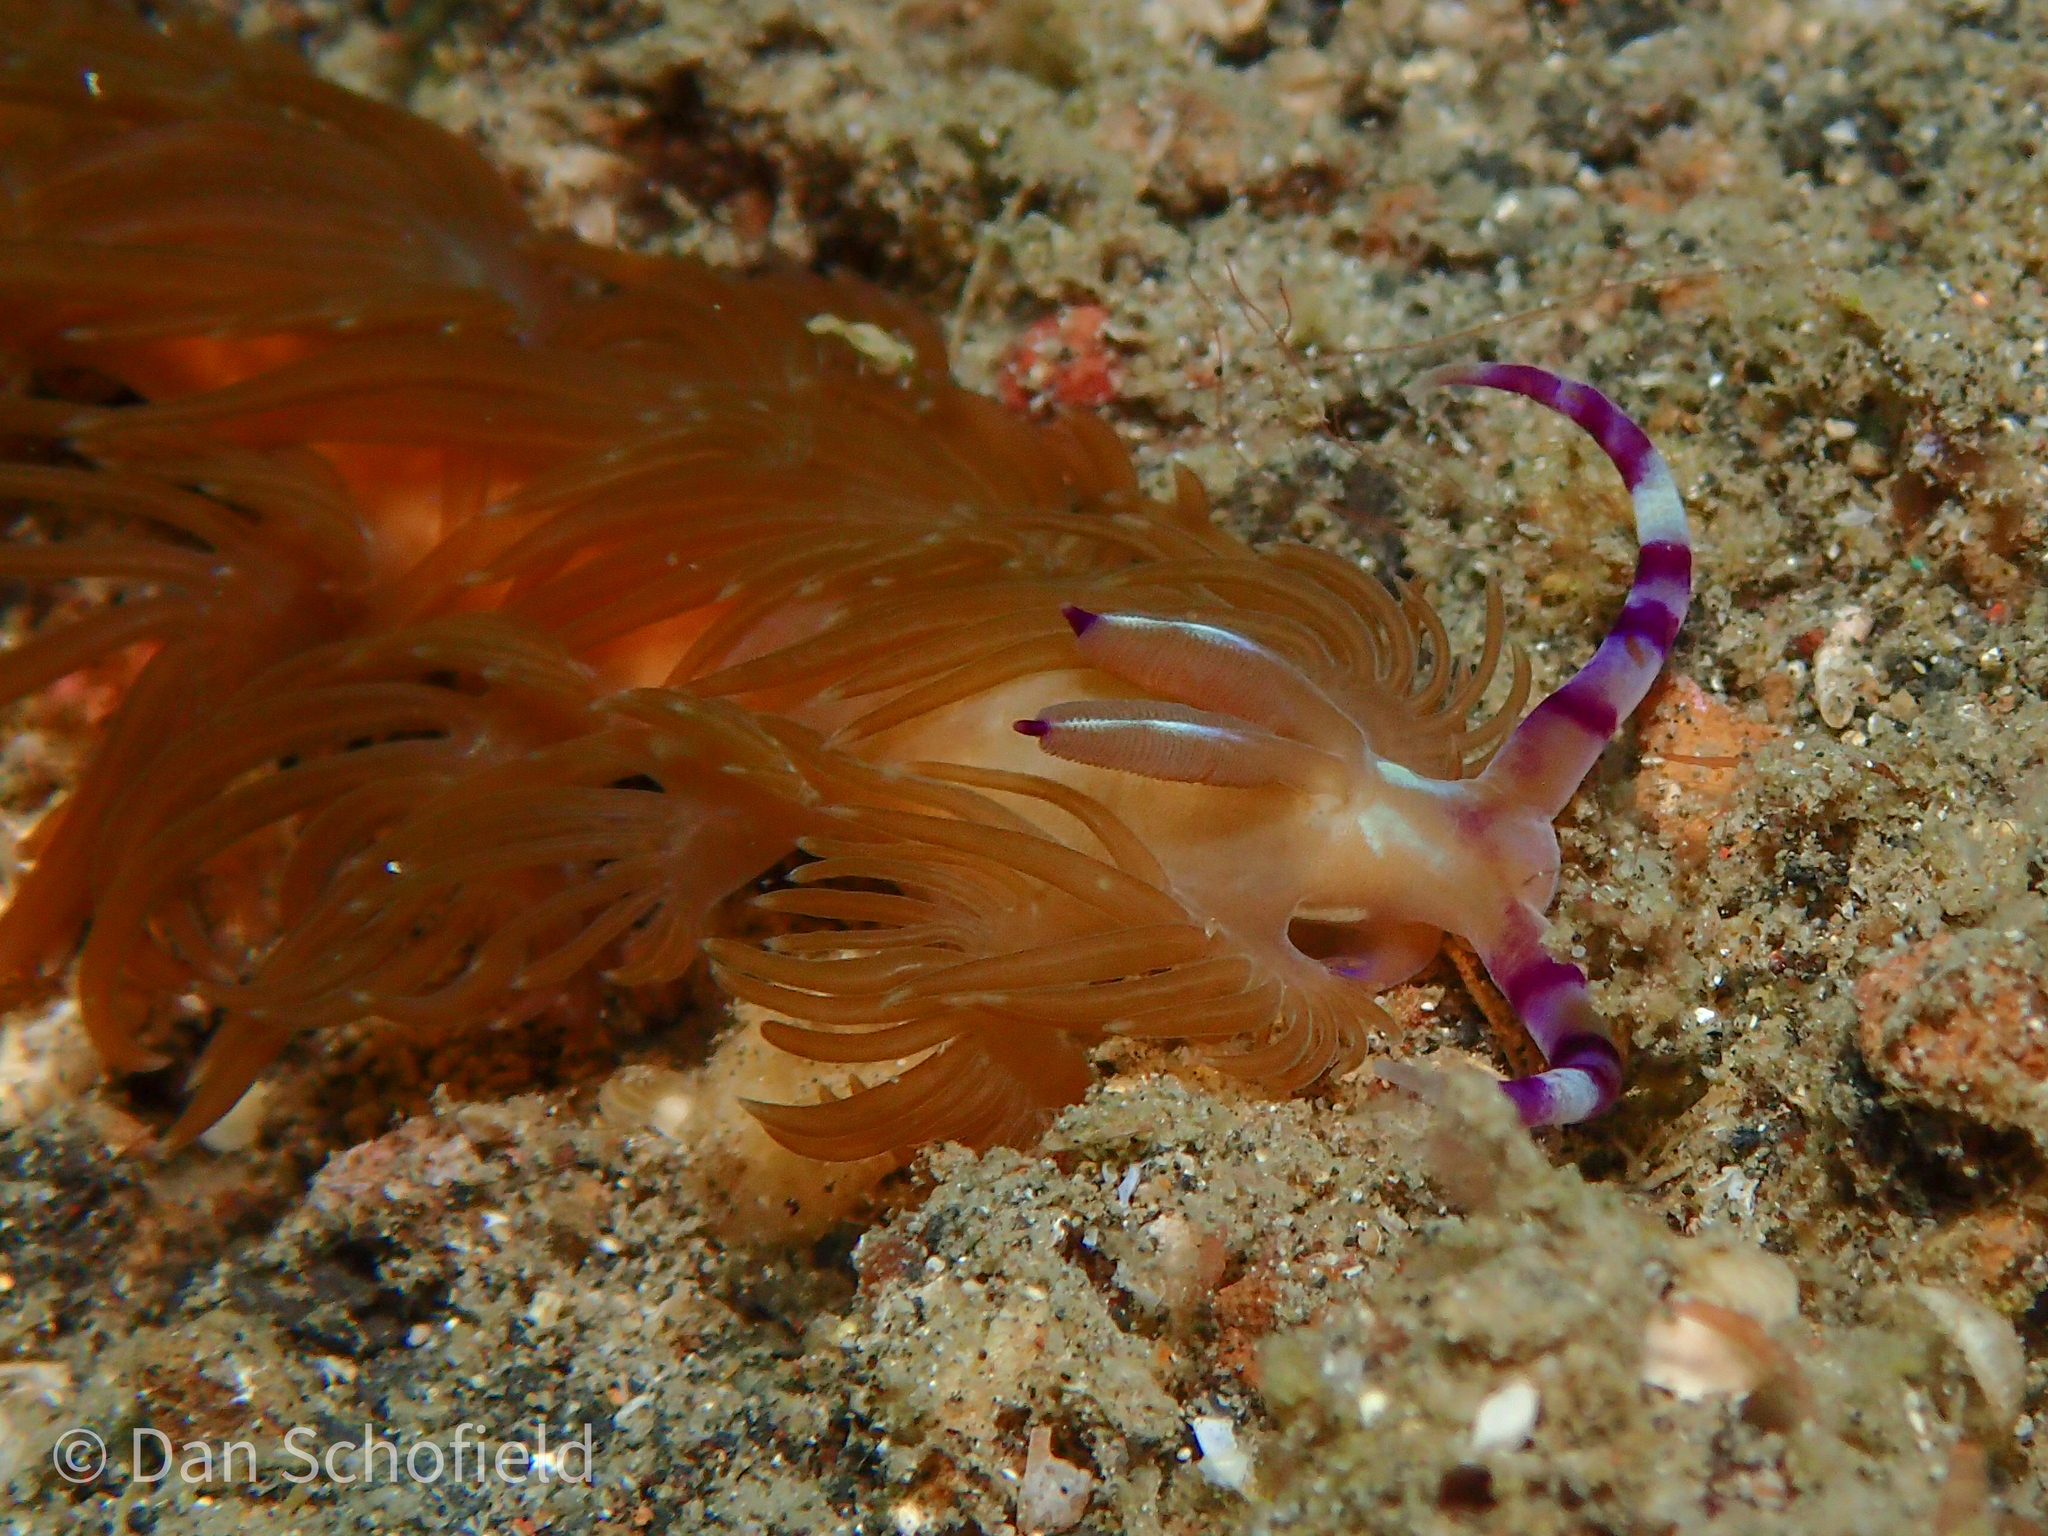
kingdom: Animalia
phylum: Mollusca
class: Gastropoda
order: Nudibranchia
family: Facelinidae
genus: Pteraeolidia
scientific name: Pteraeolidia semperi
